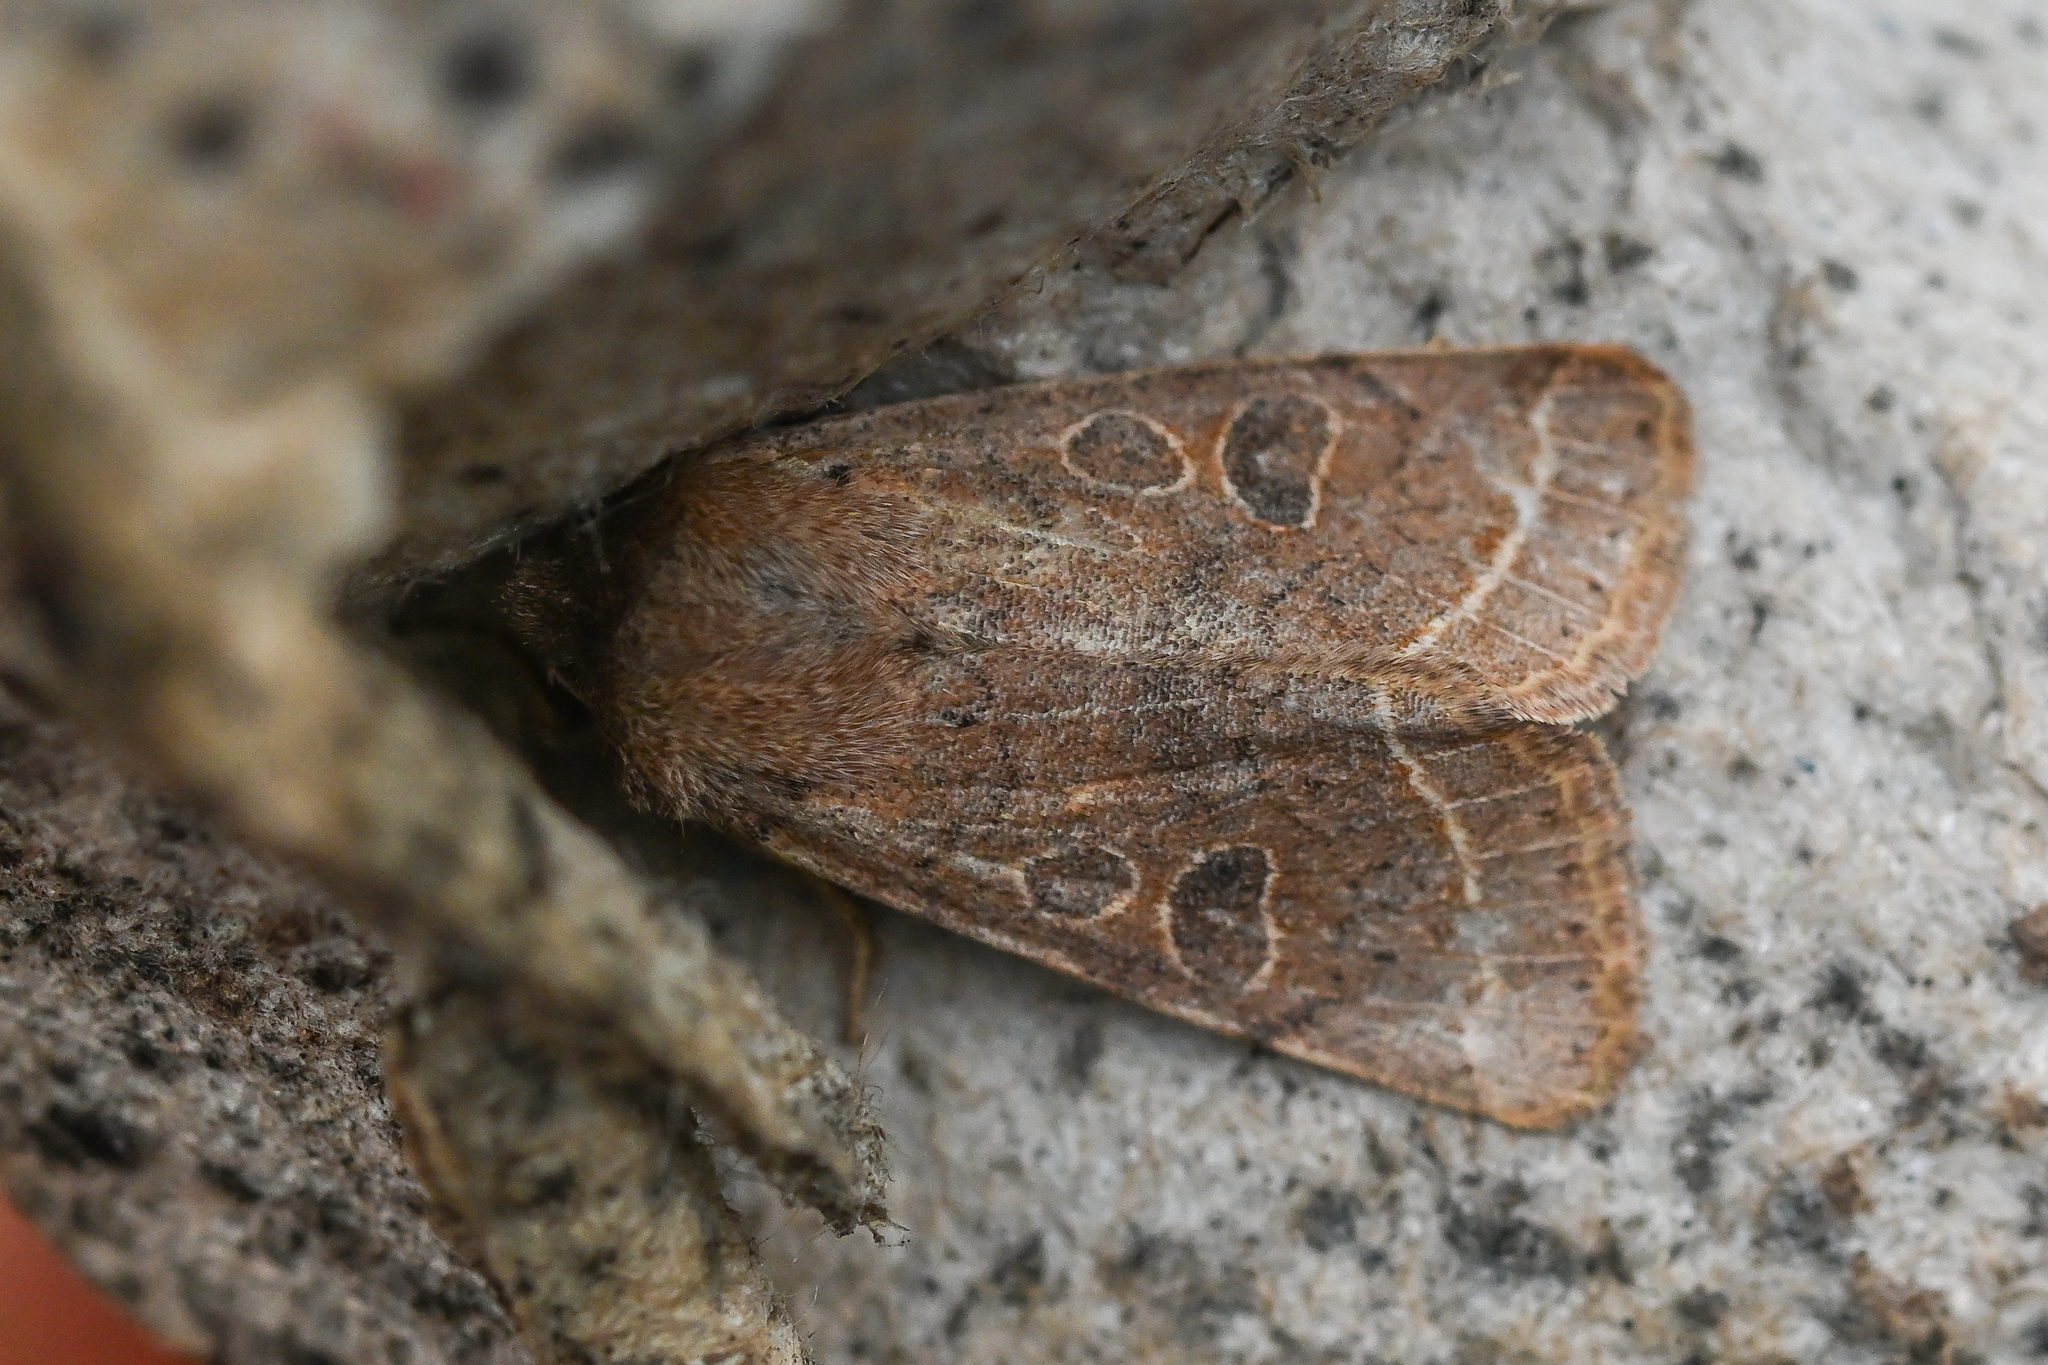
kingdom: Animalia
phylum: Arthropoda
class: Insecta
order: Lepidoptera
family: Noctuidae
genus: Orthosia
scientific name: Orthosia cerasi
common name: Common quaker
